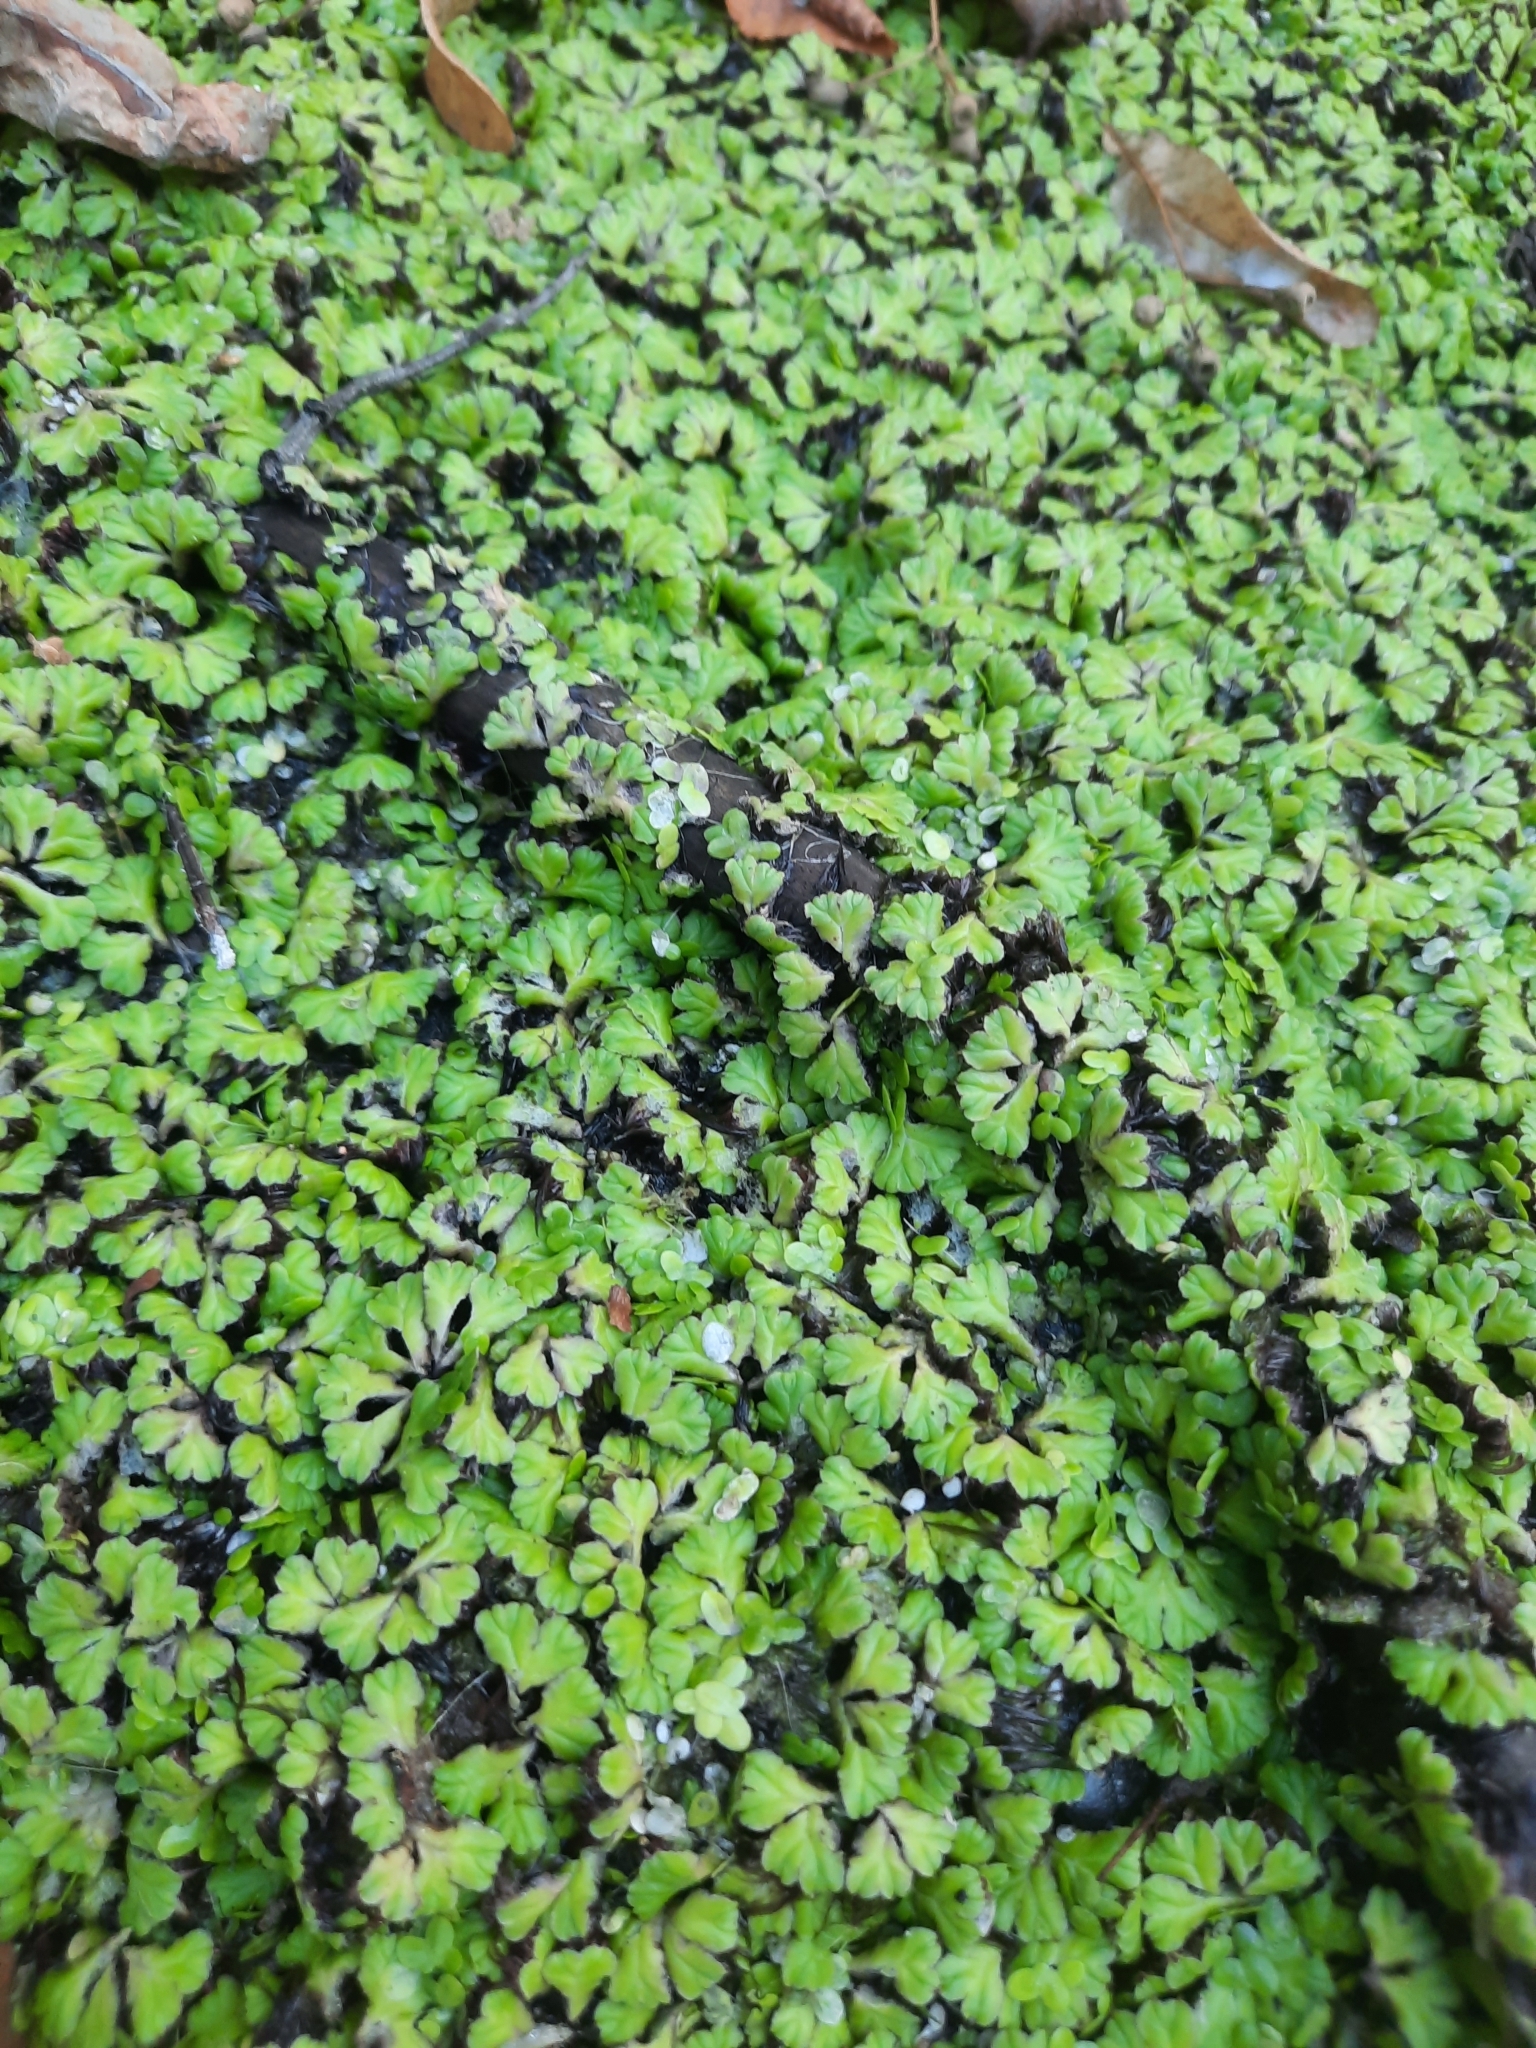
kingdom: Plantae
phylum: Marchantiophyta
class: Marchantiopsida
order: Marchantiales
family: Ricciaceae
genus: Ricciocarpos
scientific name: Ricciocarpos natans
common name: Purple-fringed liverwort
